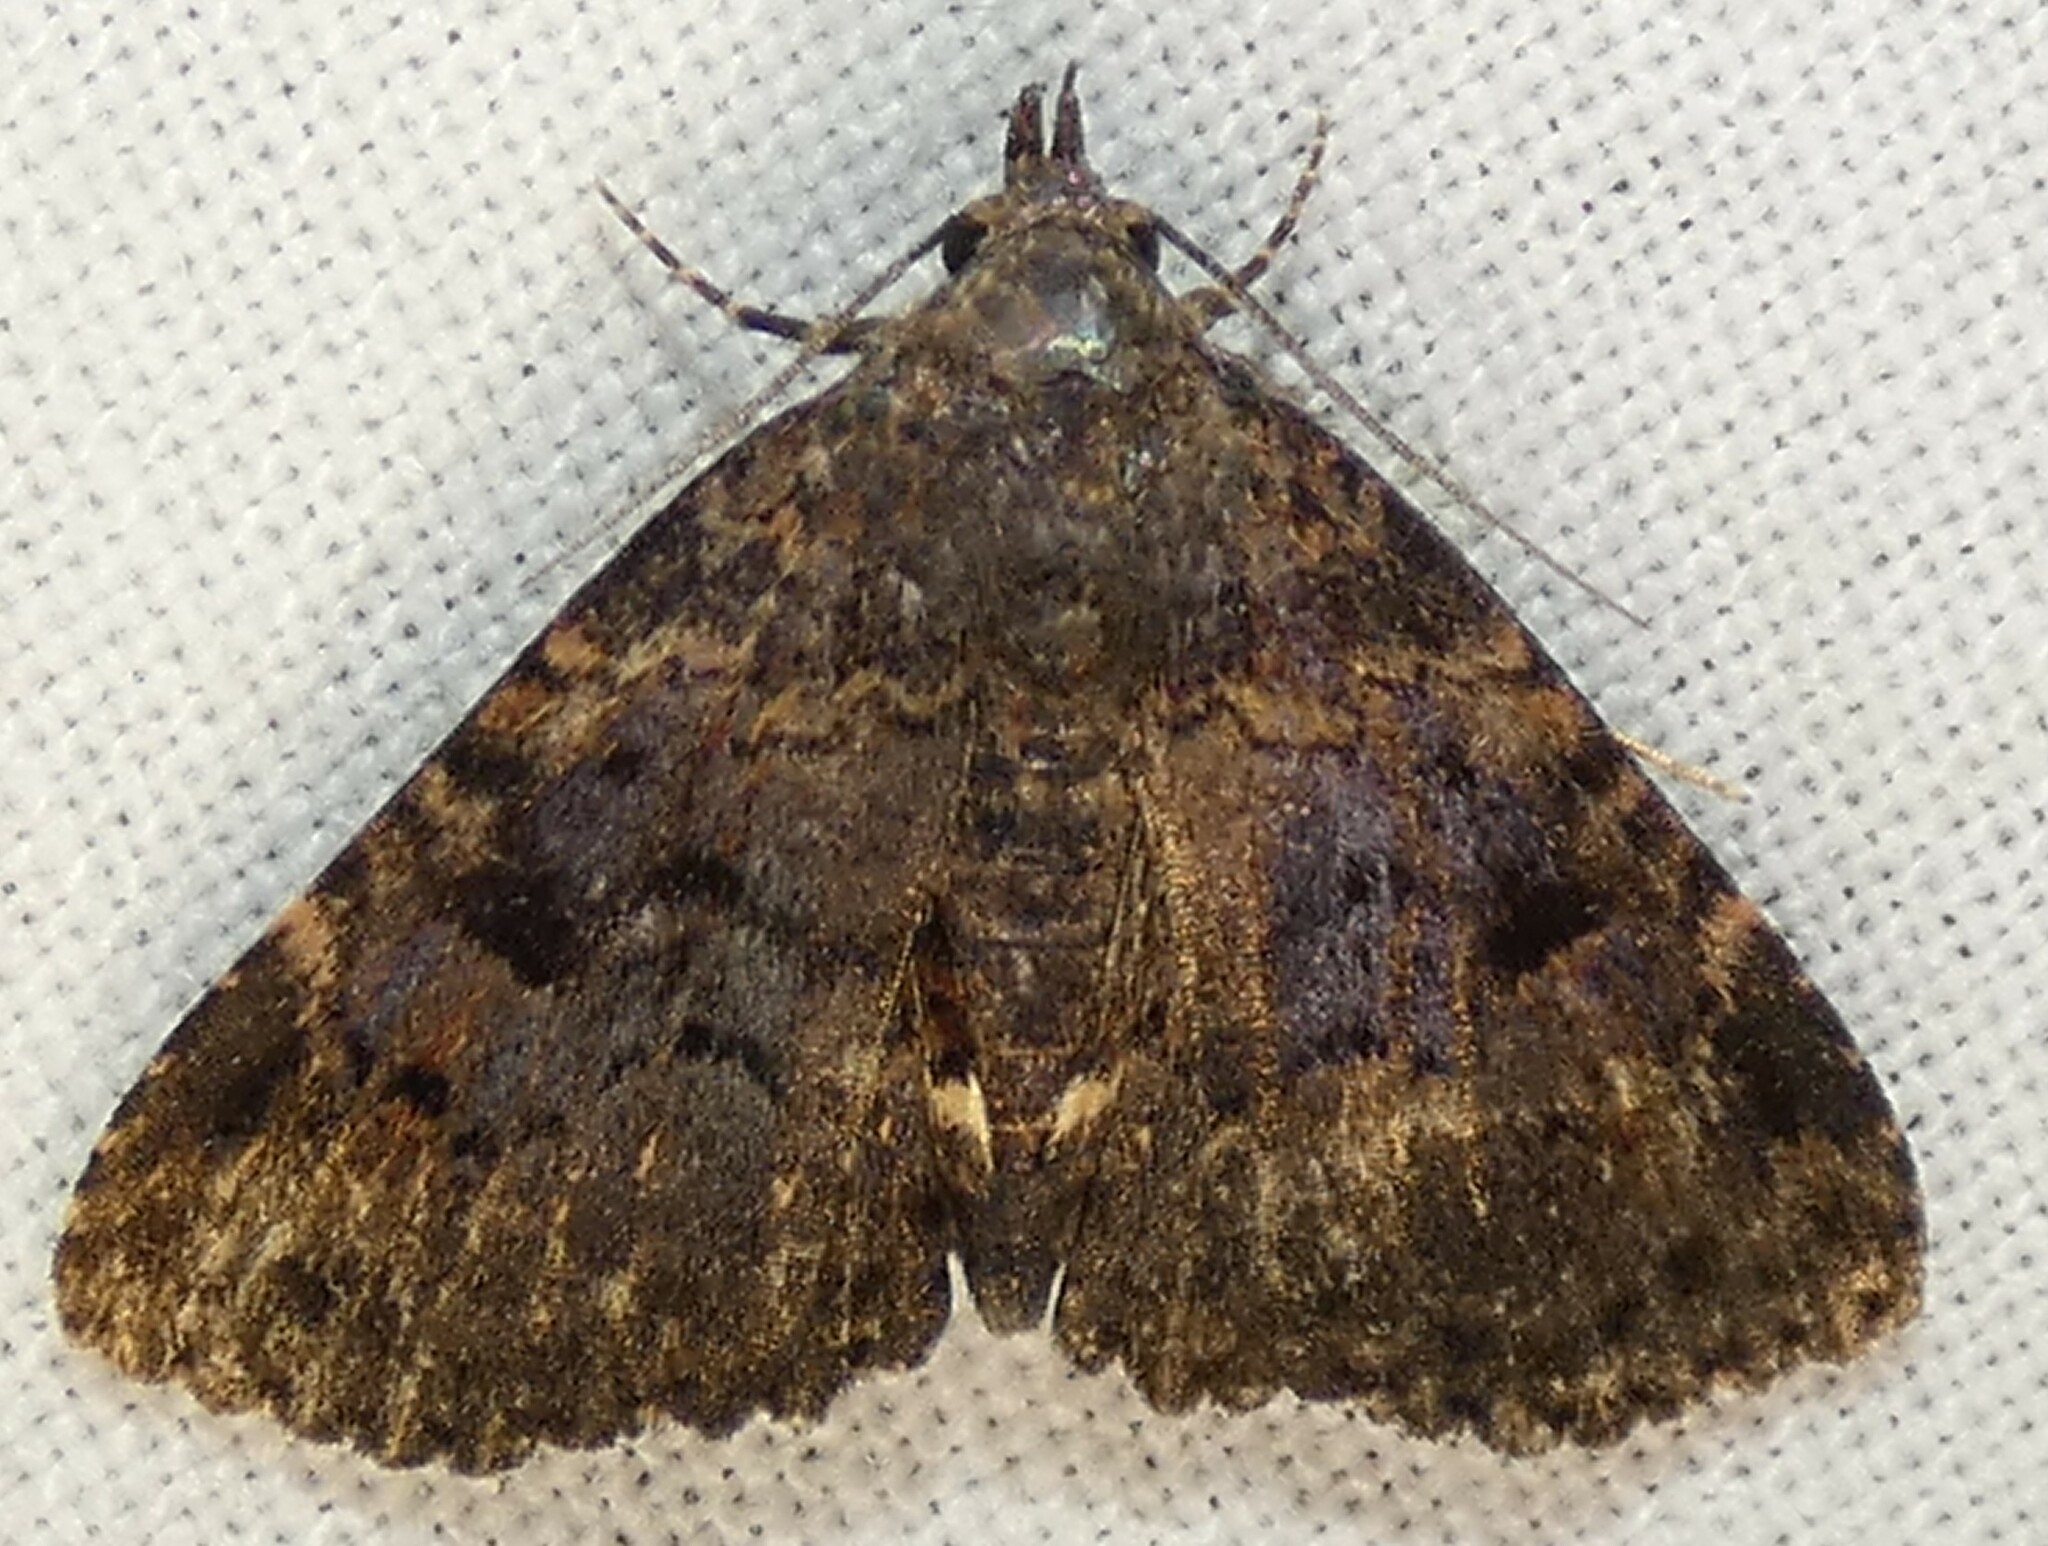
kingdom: Animalia
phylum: Arthropoda
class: Insecta
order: Lepidoptera
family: Erebidae
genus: Metalectra
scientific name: Metalectra discalis
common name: Common fungus moth
